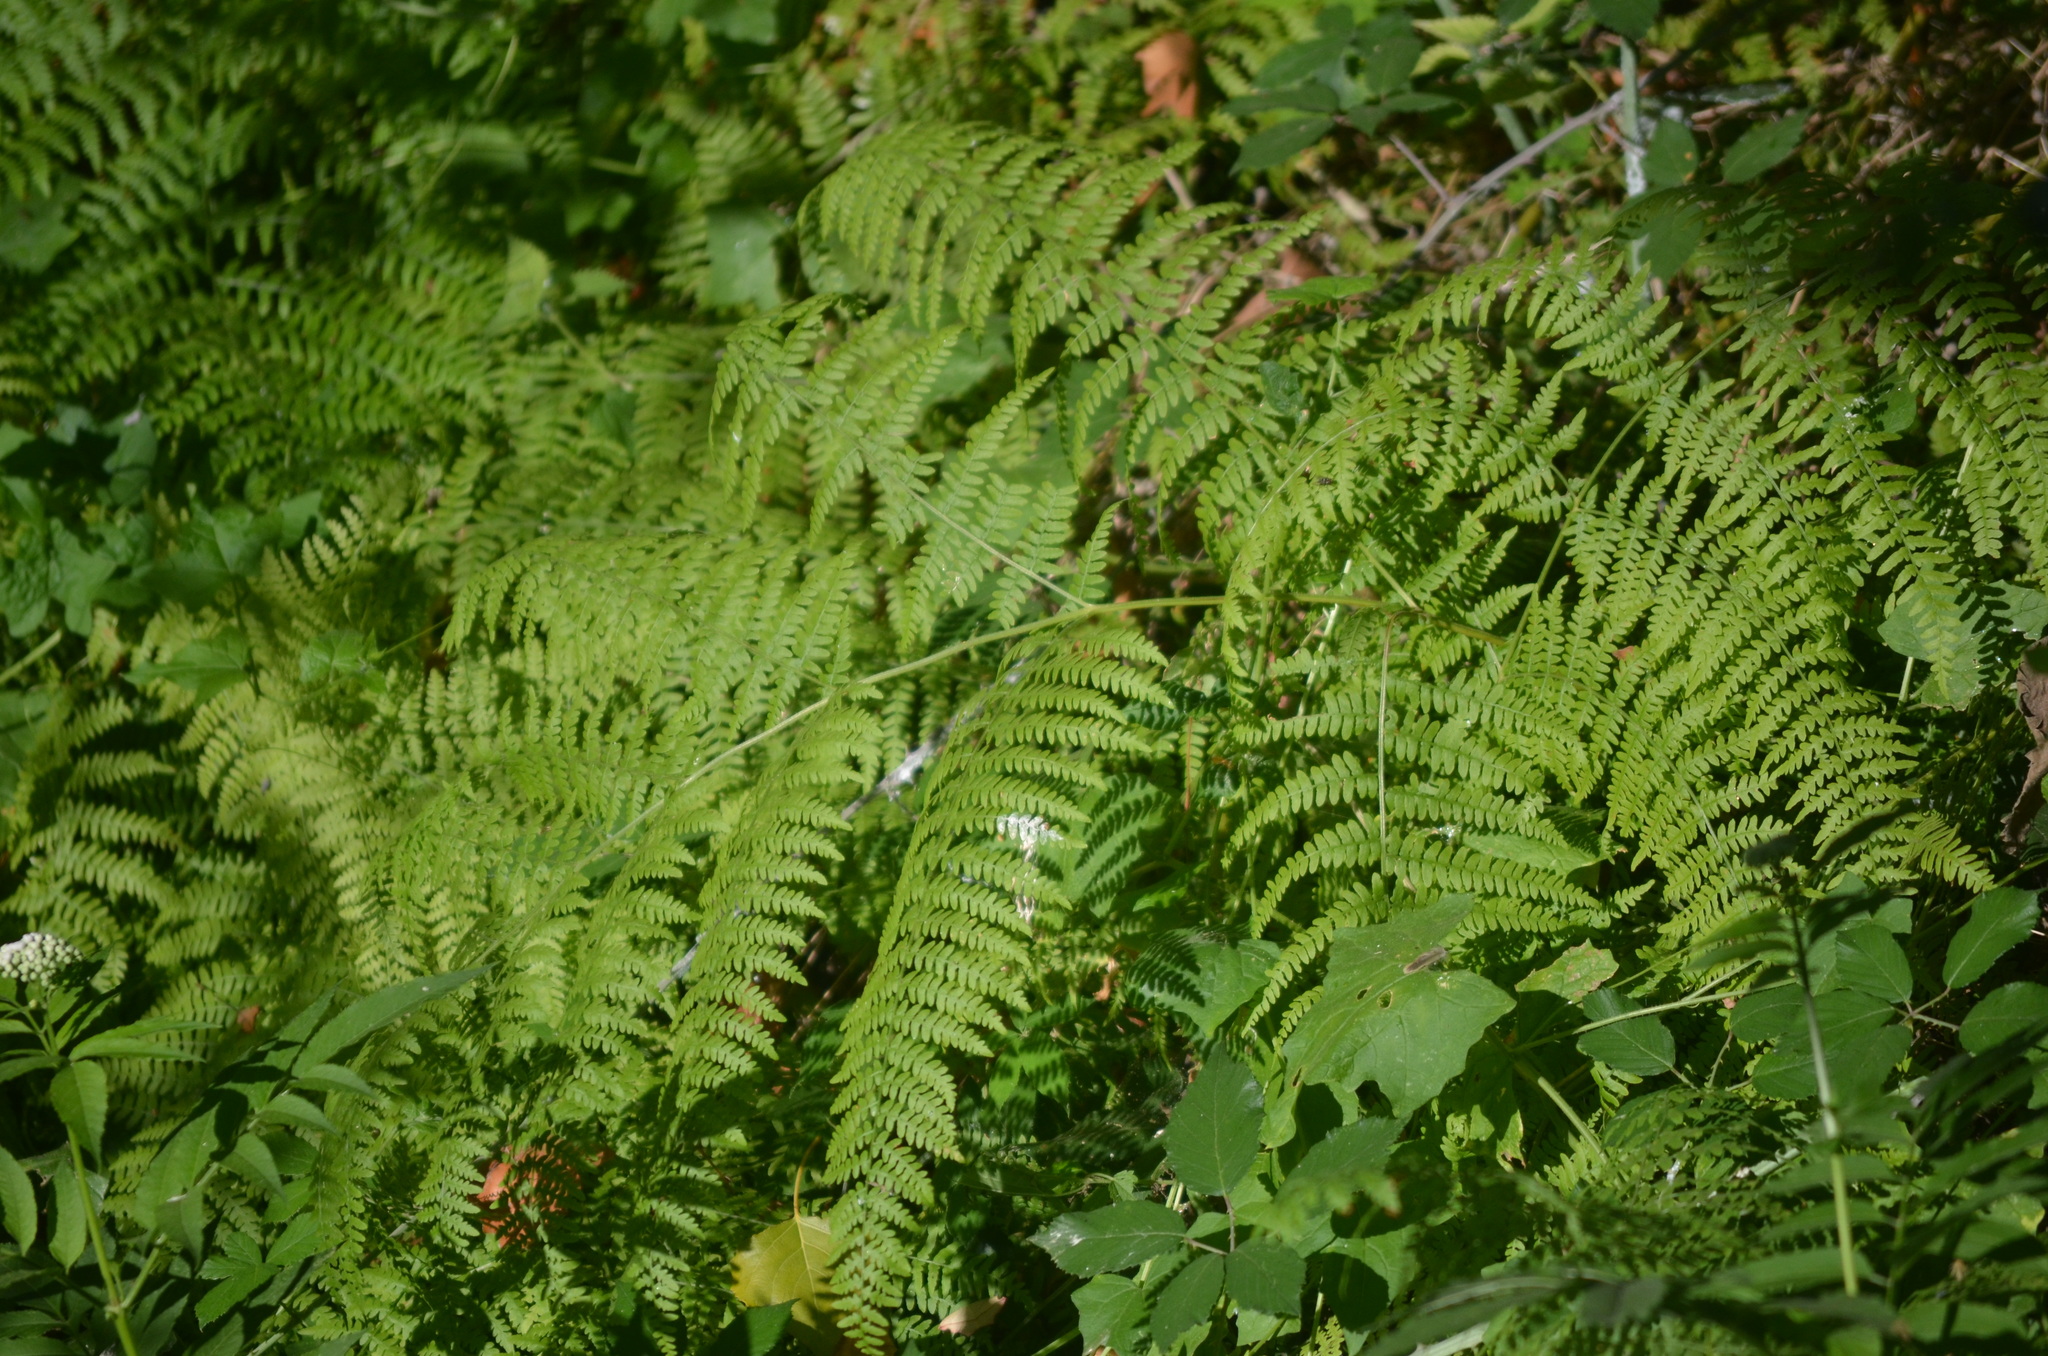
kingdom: Plantae
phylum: Tracheophyta
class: Polypodiopsida
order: Polypodiales
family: Dennstaedtiaceae
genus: Pteridium
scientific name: Pteridium aquilinum
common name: Bracken
